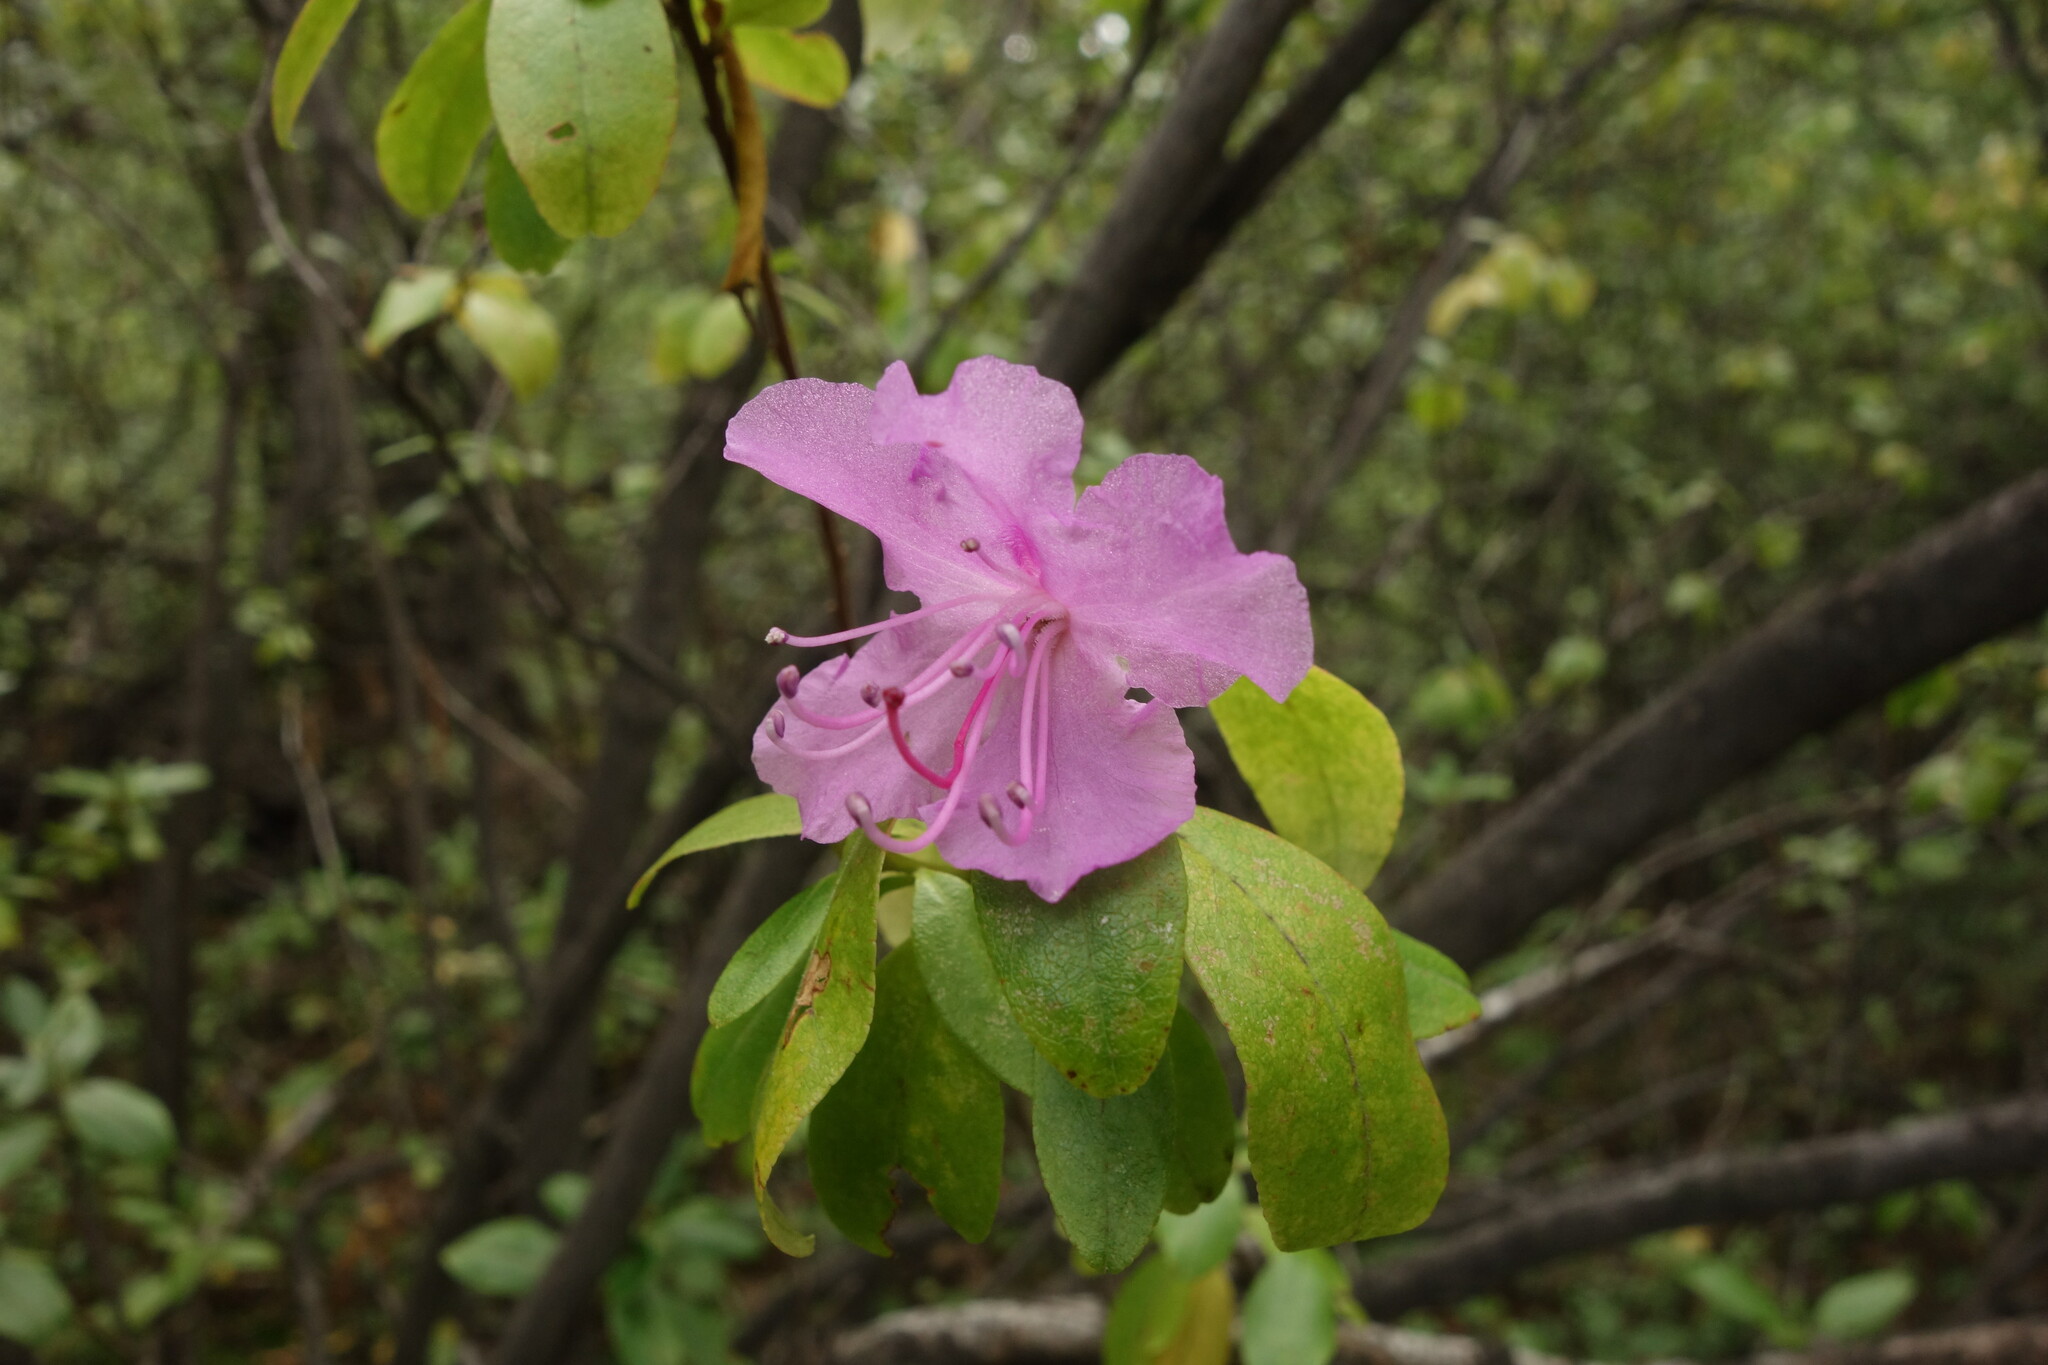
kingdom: Plantae
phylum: Tracheophyta
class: Magnoliopsida
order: Ericales
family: Ericaceae
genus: Rhododendron
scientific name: Rhododendron dauricum
